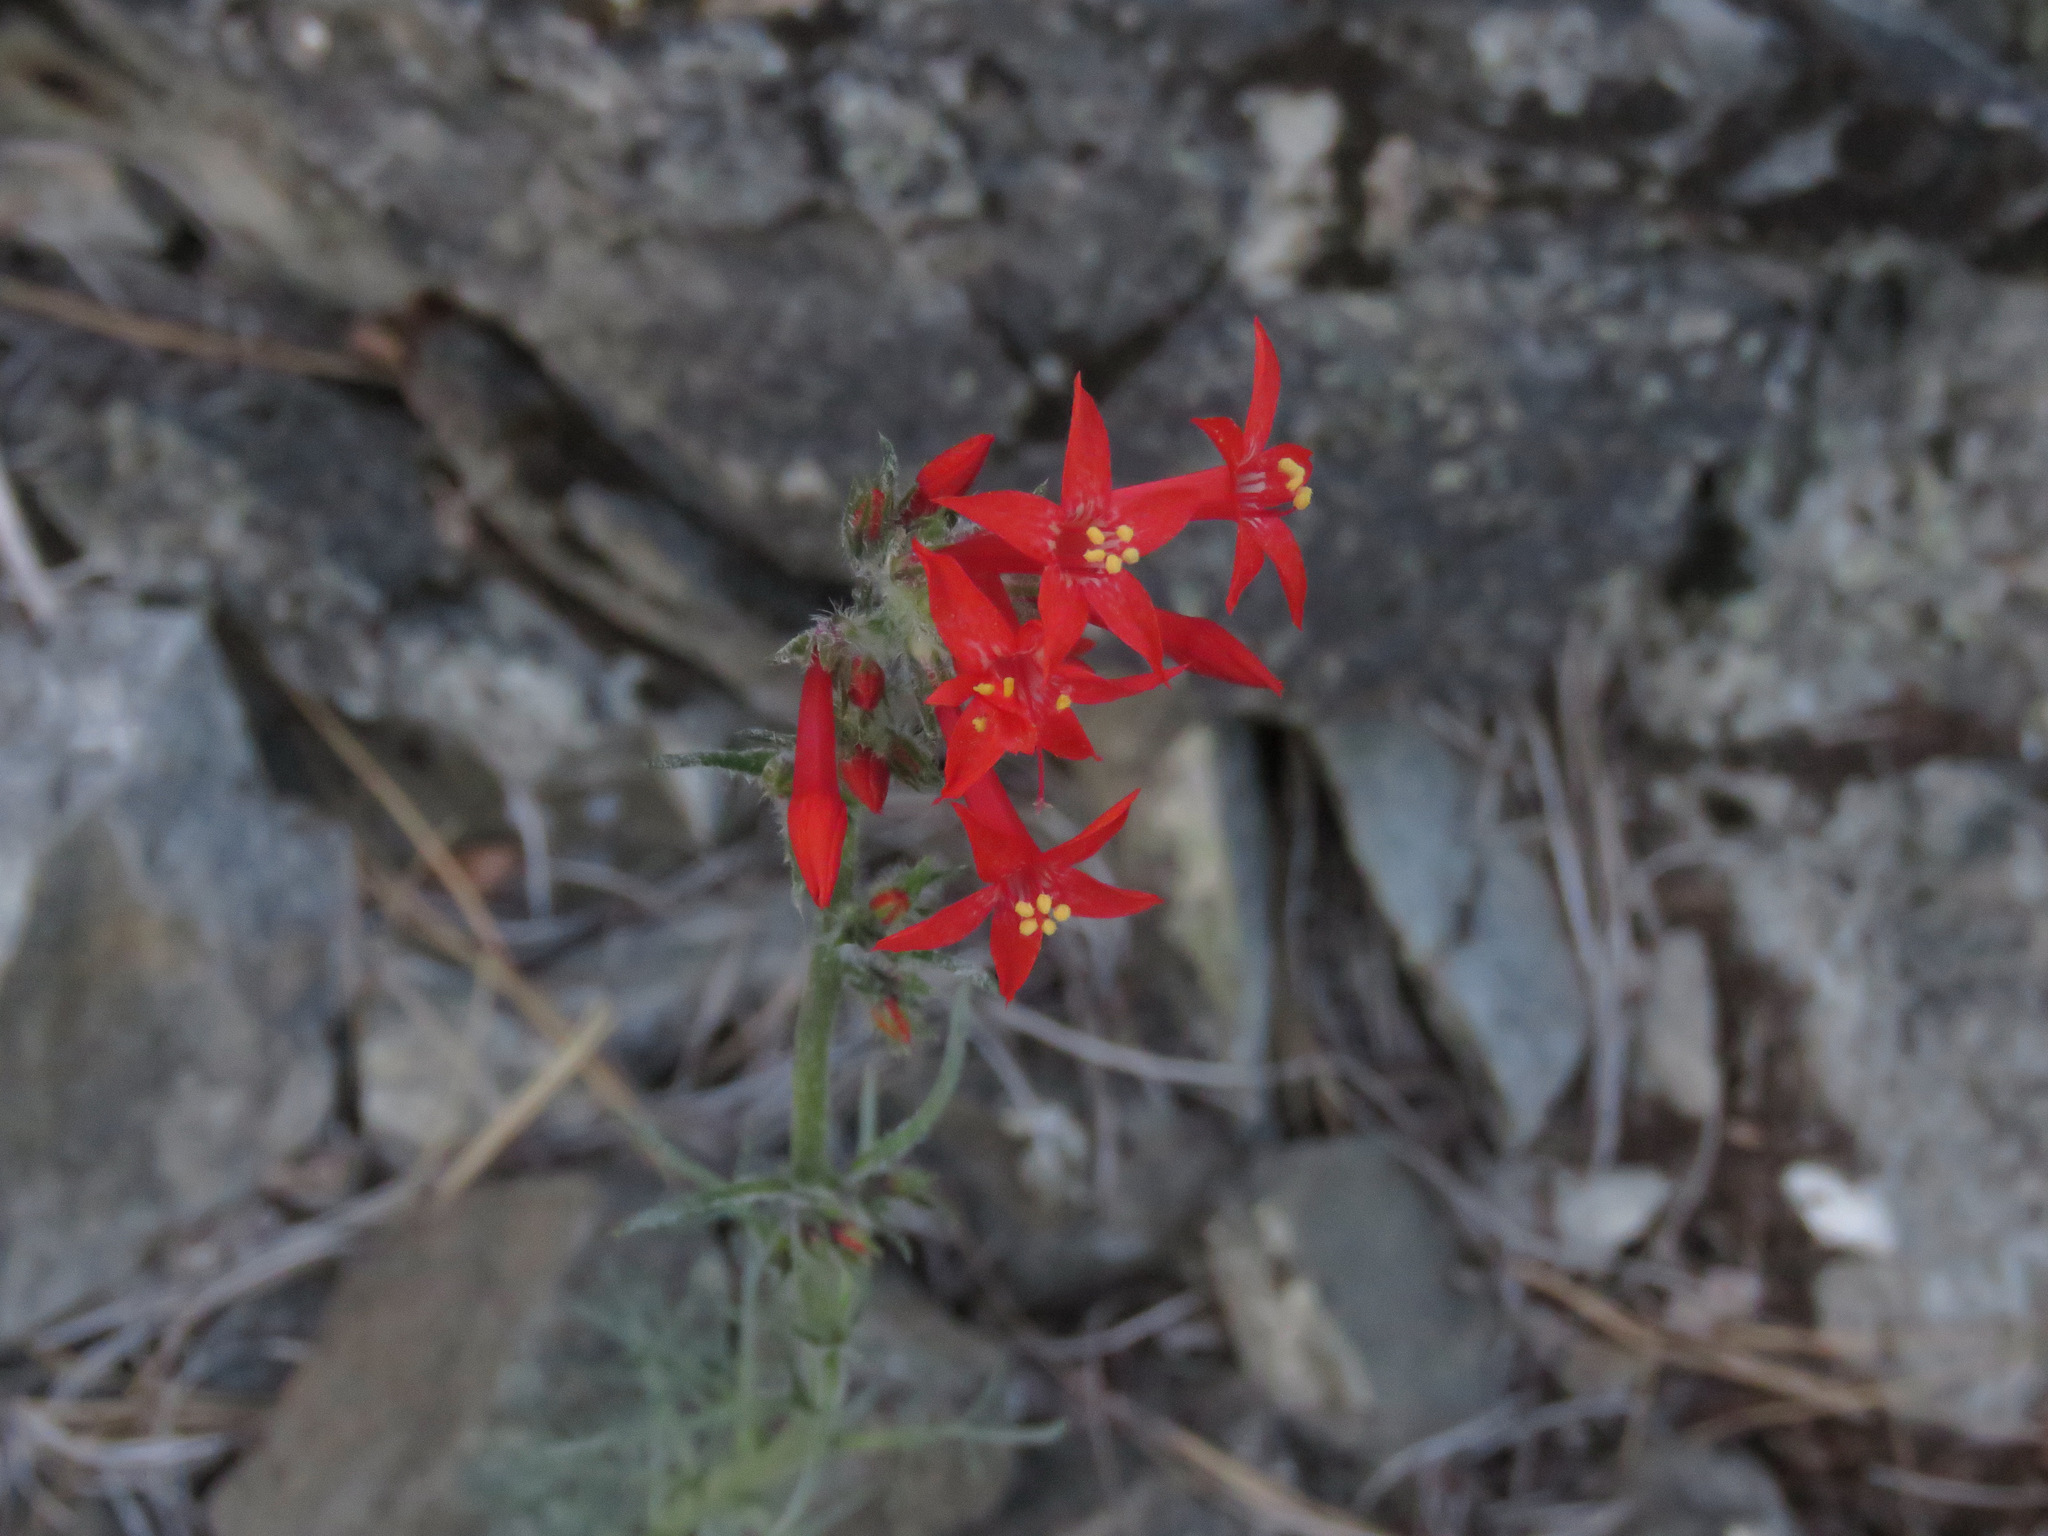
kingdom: Plantae
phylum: Tracheophyta
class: Magnoliopsida
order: Ericales
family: Polemoniaceae
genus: Ipomopsis
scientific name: Ipomopsis aggregata
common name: Scarlet gilia
